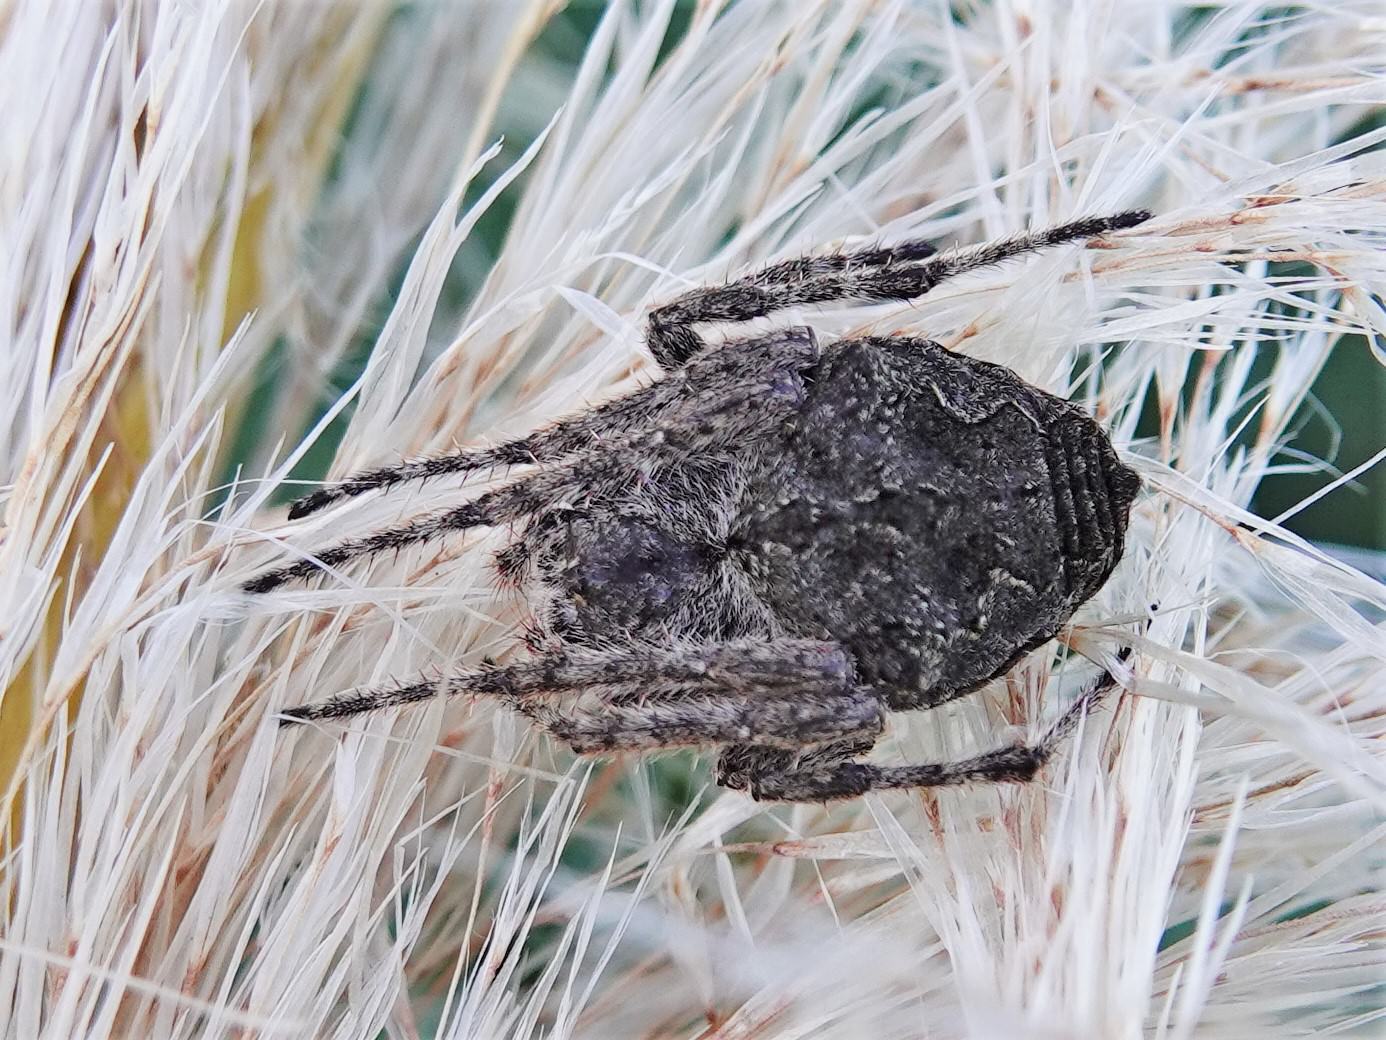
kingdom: Animalia
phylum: Arthropoda
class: Arachnida
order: Araneae
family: Araneidae
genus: Eriophora
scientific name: Eriophora pustulosa
